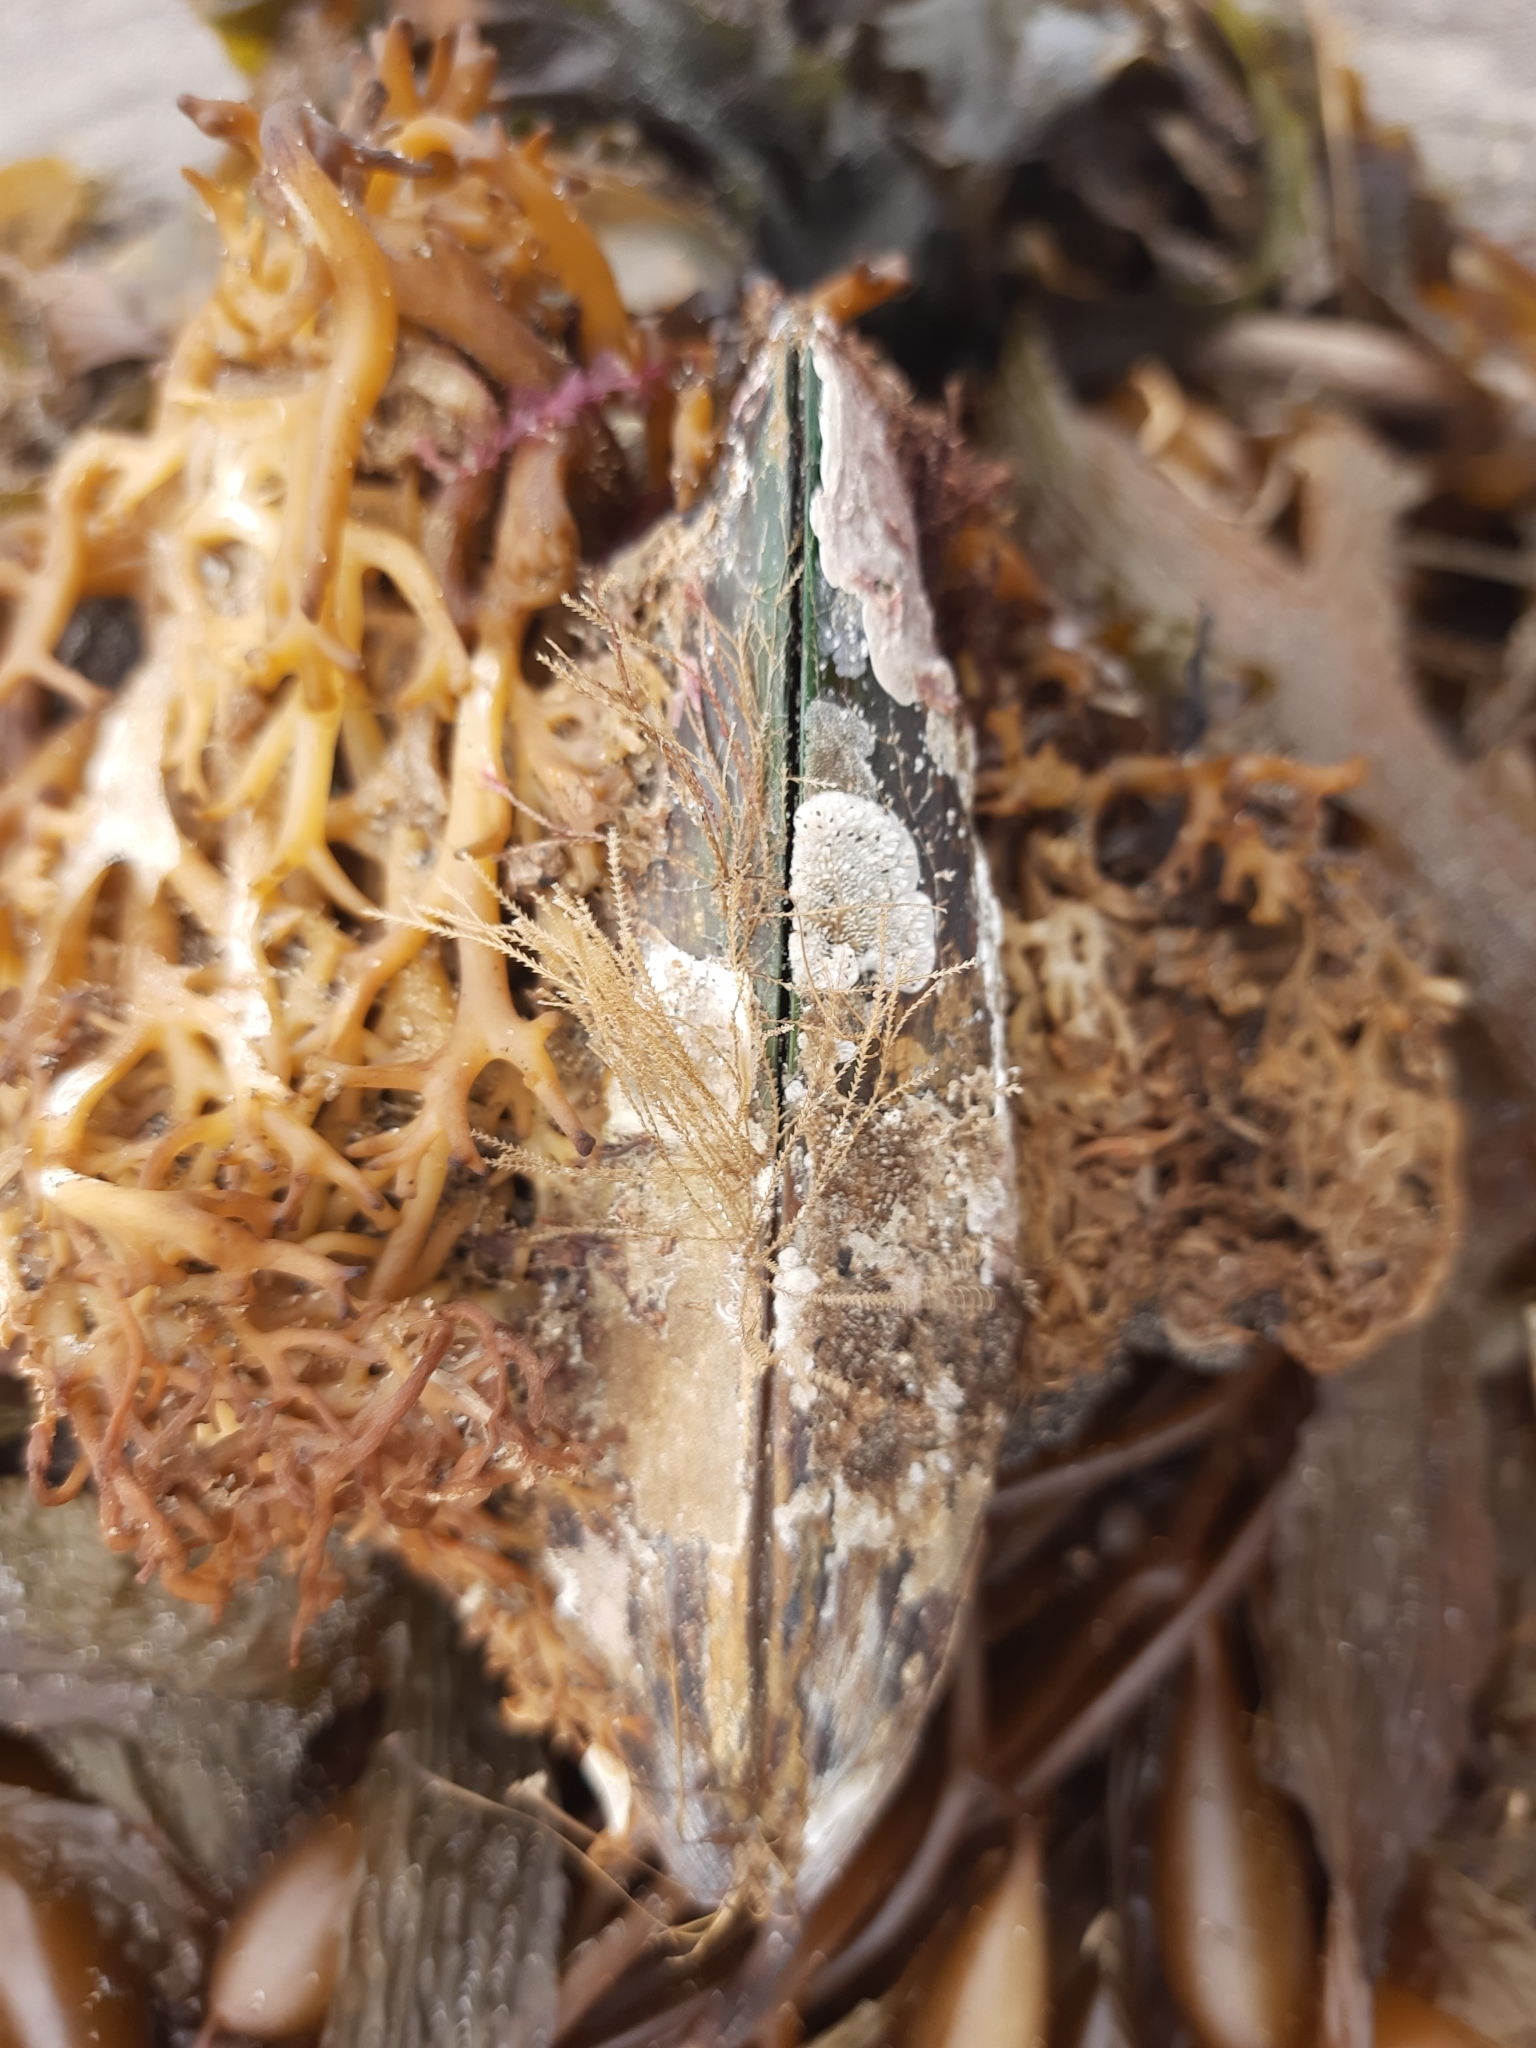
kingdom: Animalia
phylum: Mollusca
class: Bivalvia
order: Mytilida
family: Mytilidae
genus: Perna
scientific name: Perna canaliculus
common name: New zealand greenshelltm
